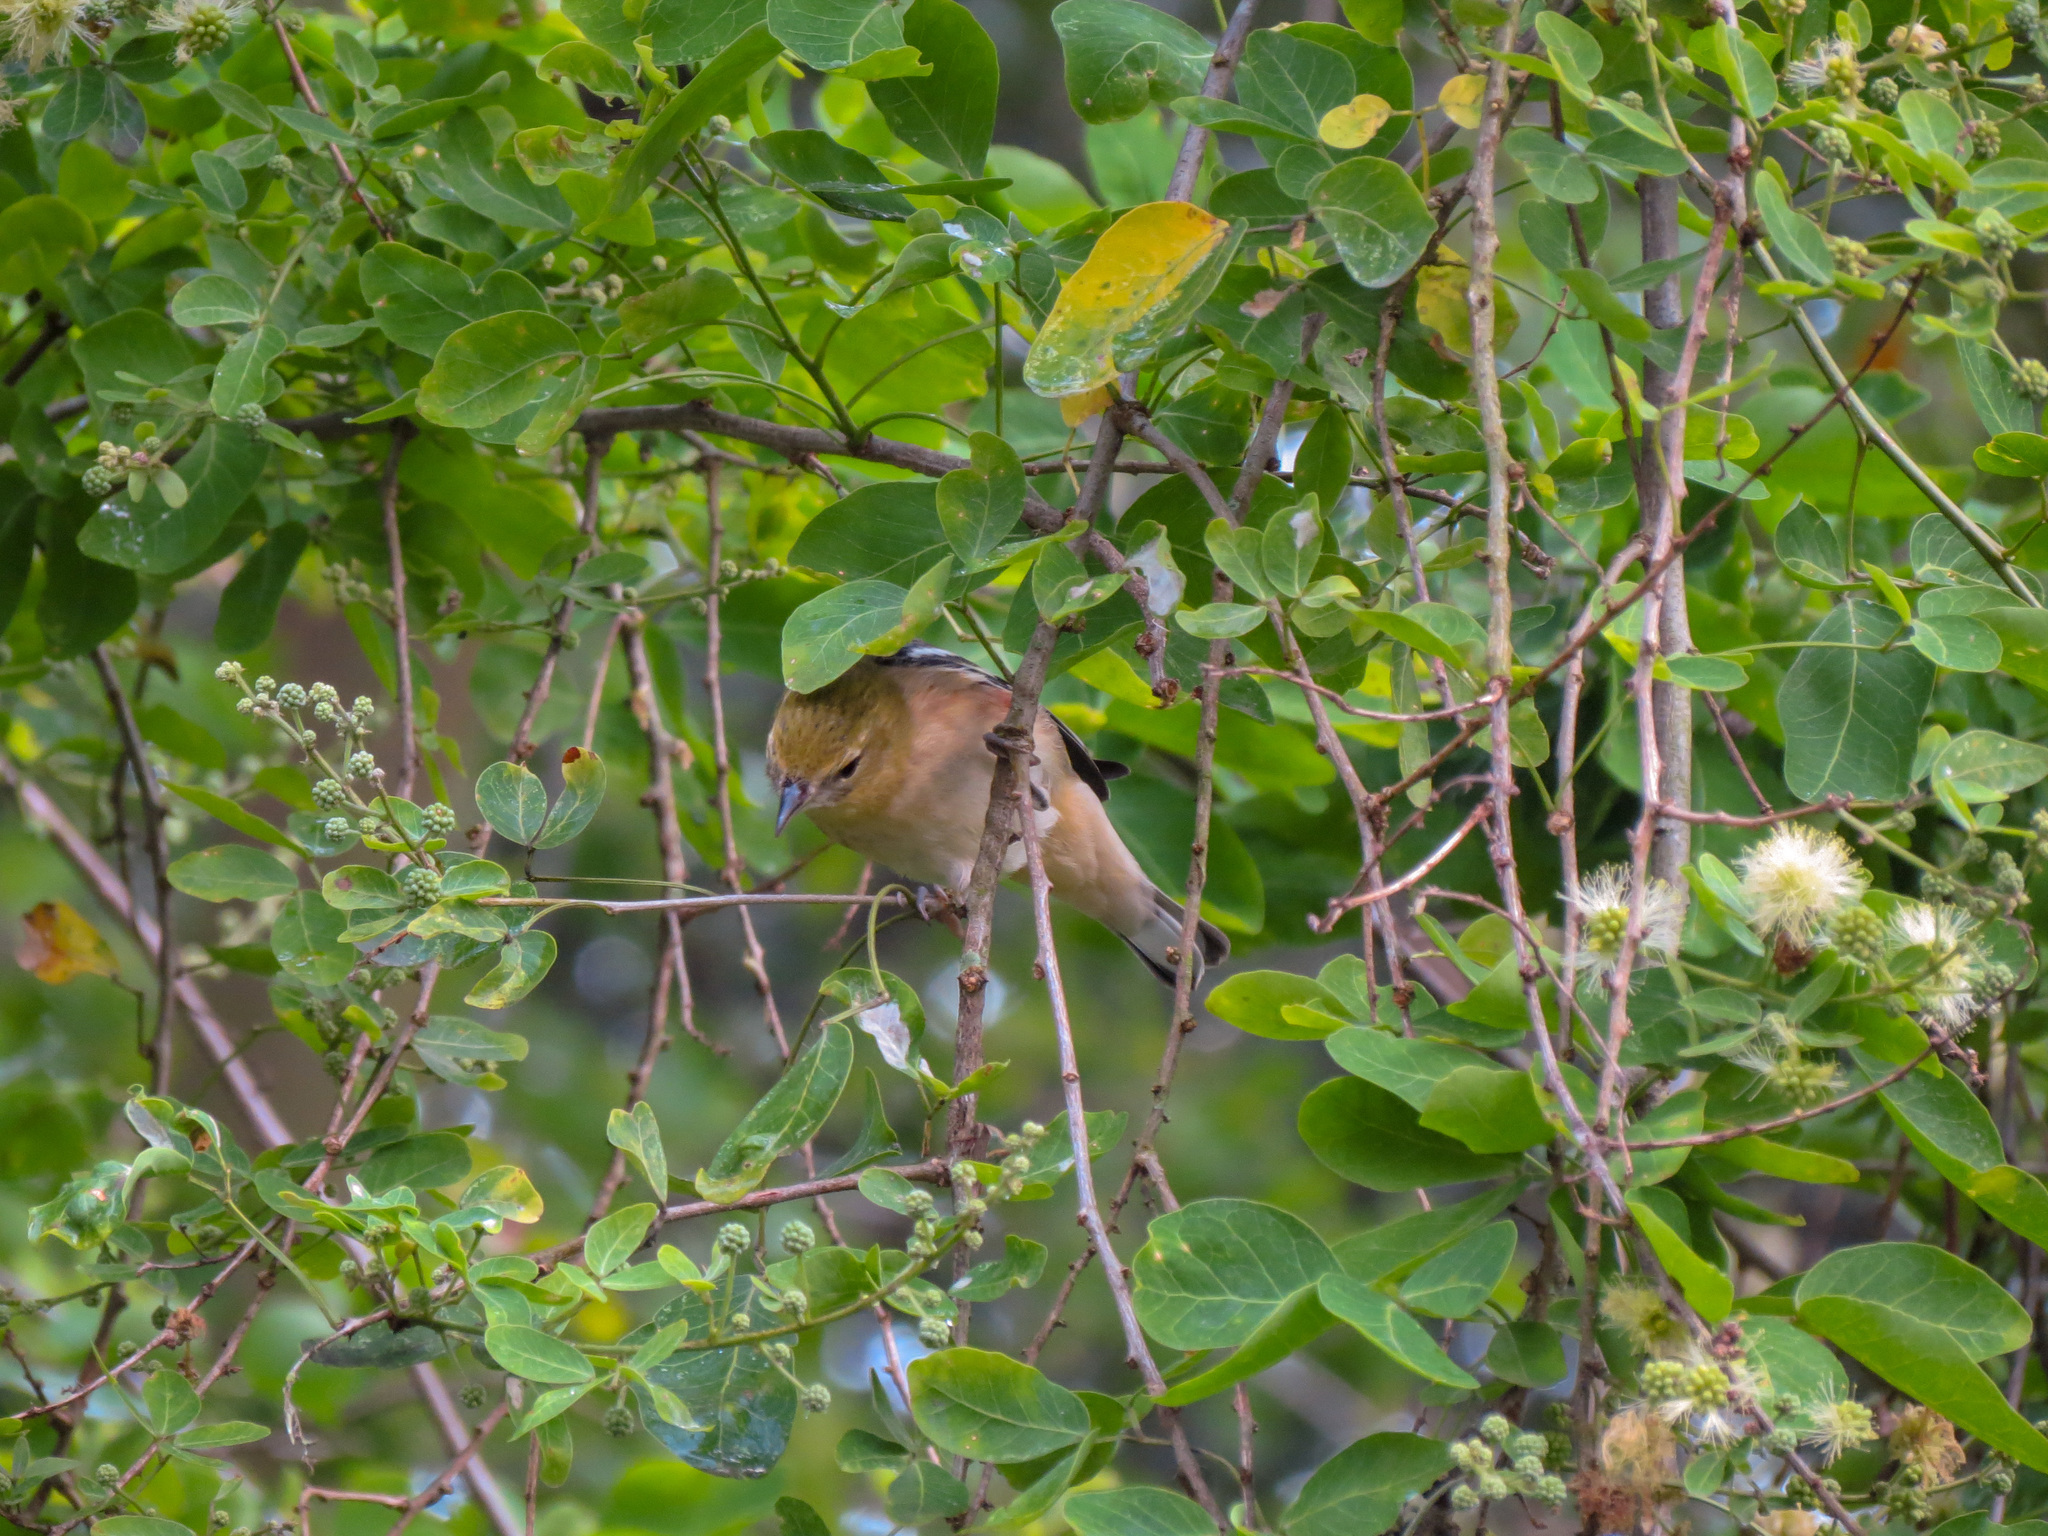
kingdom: Animalia
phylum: Chordata
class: Aves
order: Passeriformes
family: Parulidae
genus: Setophaga
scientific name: Setophaga castanea
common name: Bay-breasted warbler
